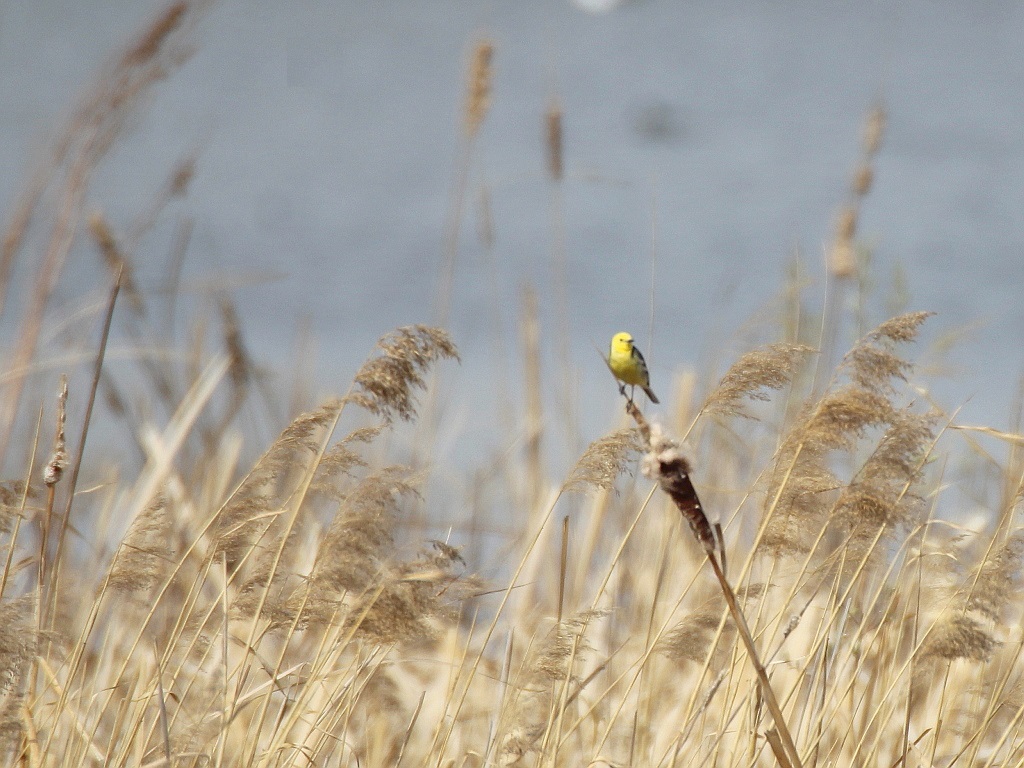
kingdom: Animalia
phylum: Chordata
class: Aves
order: Passeriformes
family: Motacillidae
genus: Motacilla
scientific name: Motacilla citreola
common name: Citrine wagtail
